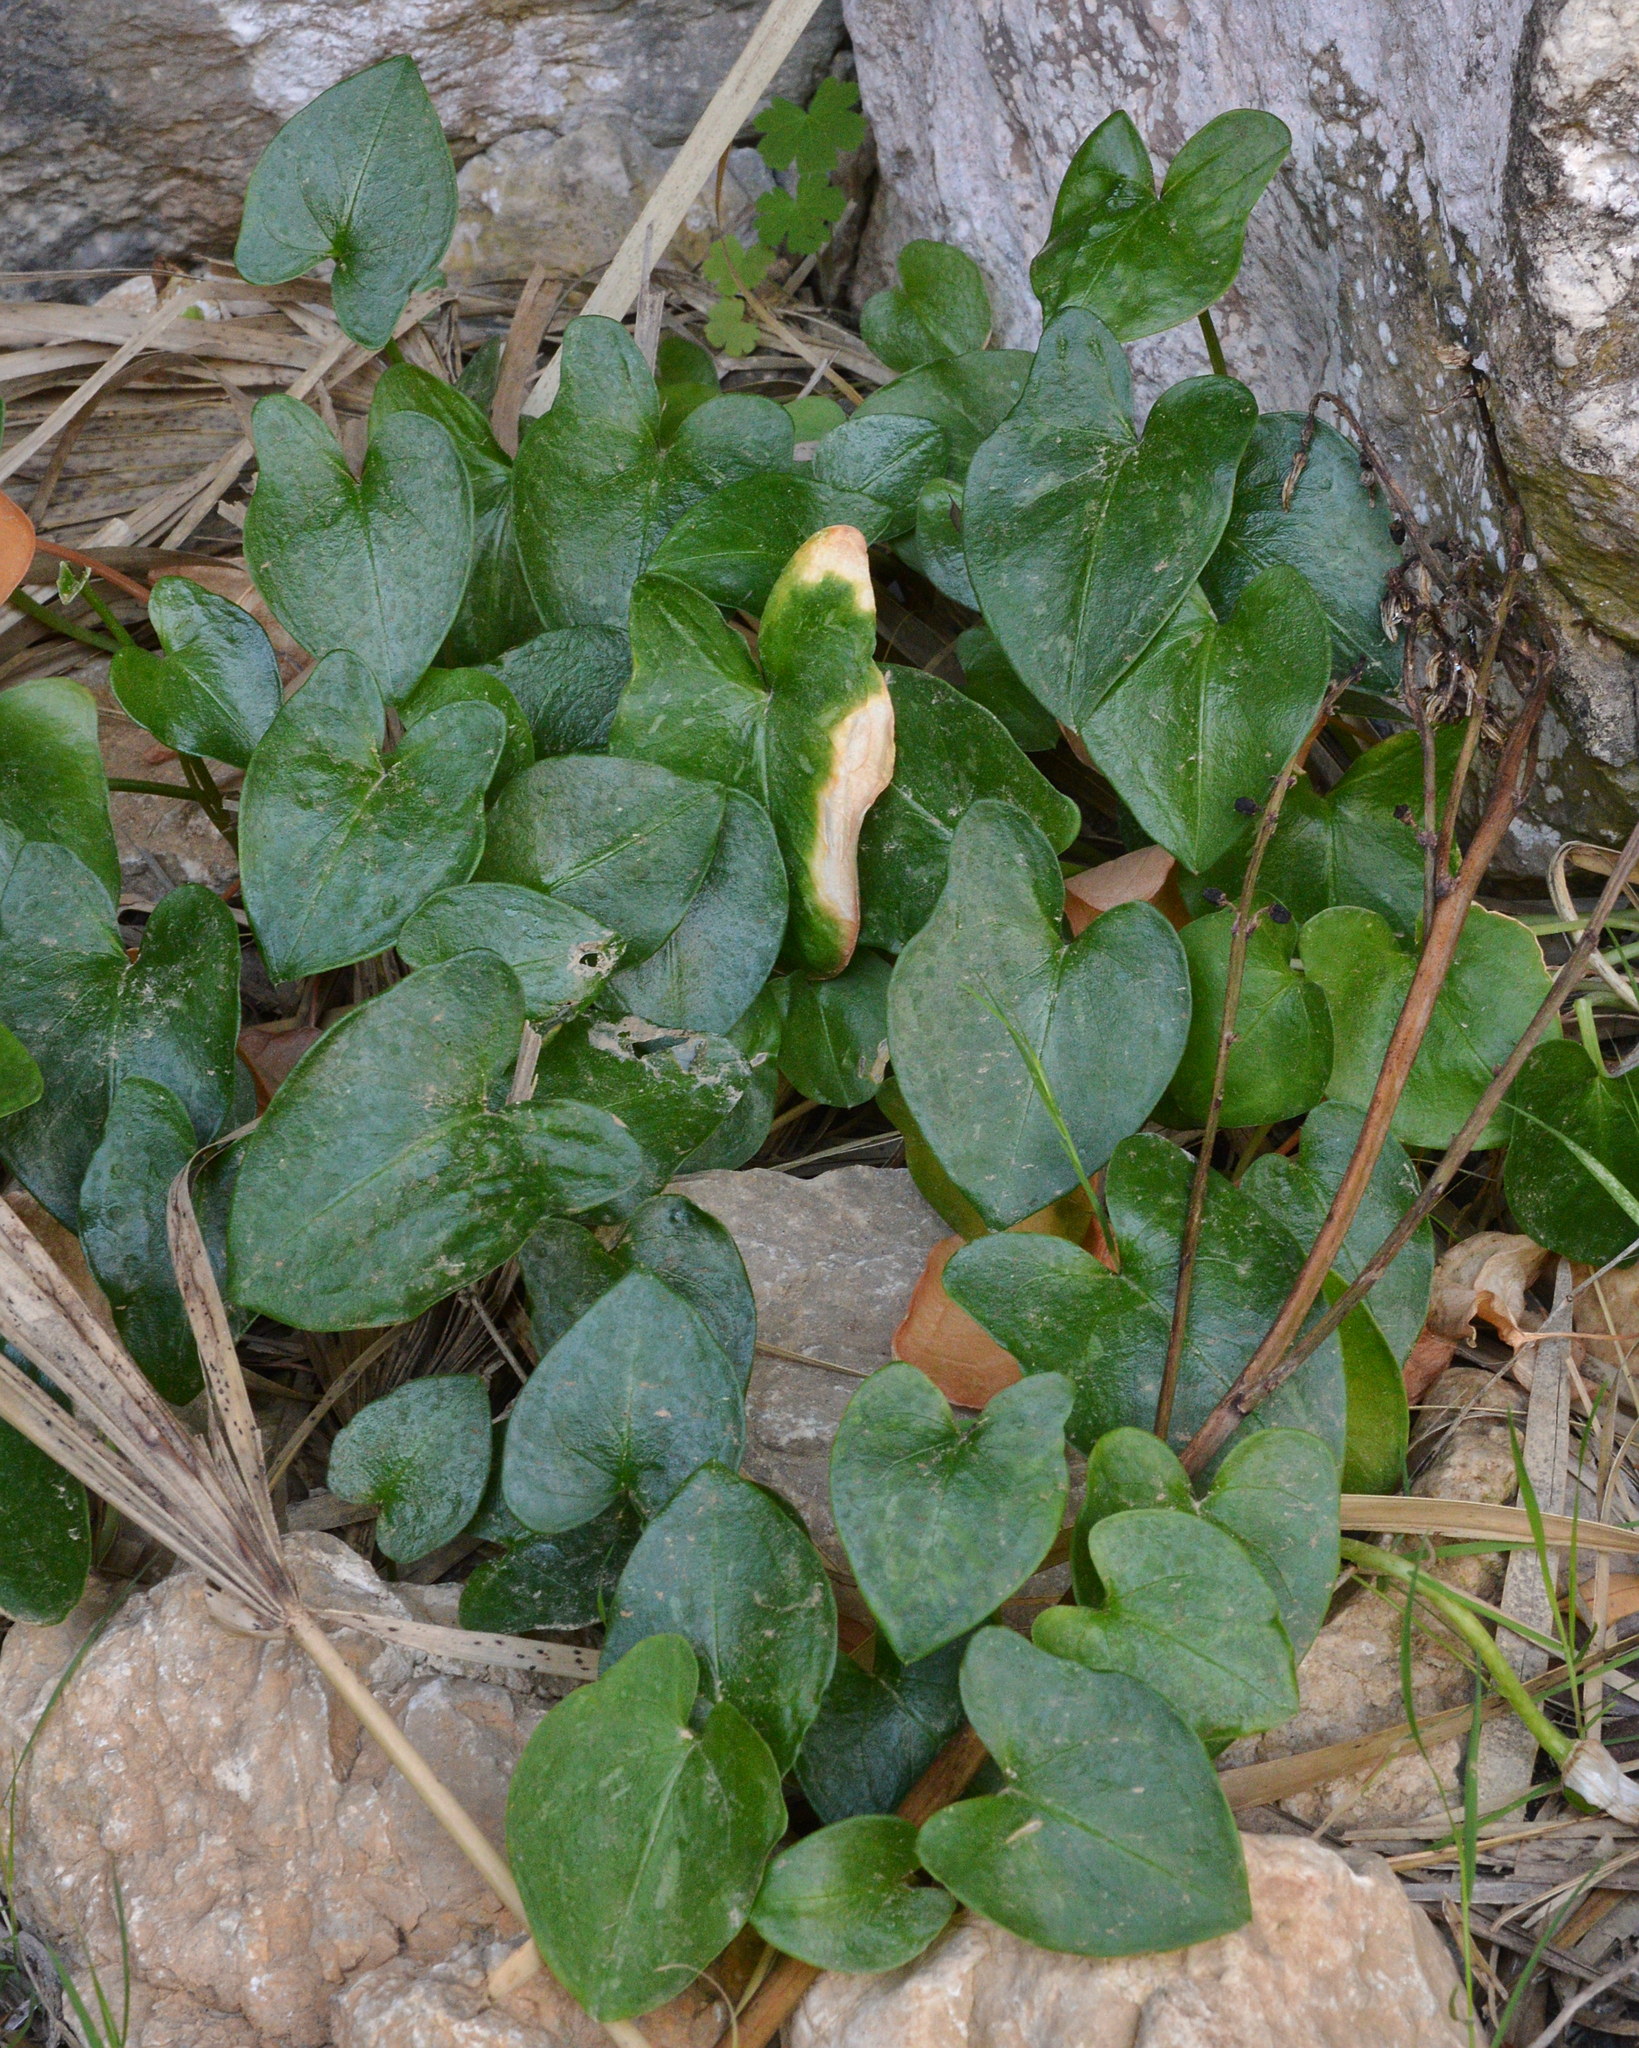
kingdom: Plantae
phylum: Tracheophyta
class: Liliopsida
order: Alismatales
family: Araceae
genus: Arisarum
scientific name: Arisarum vulgare
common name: Common arisarum
